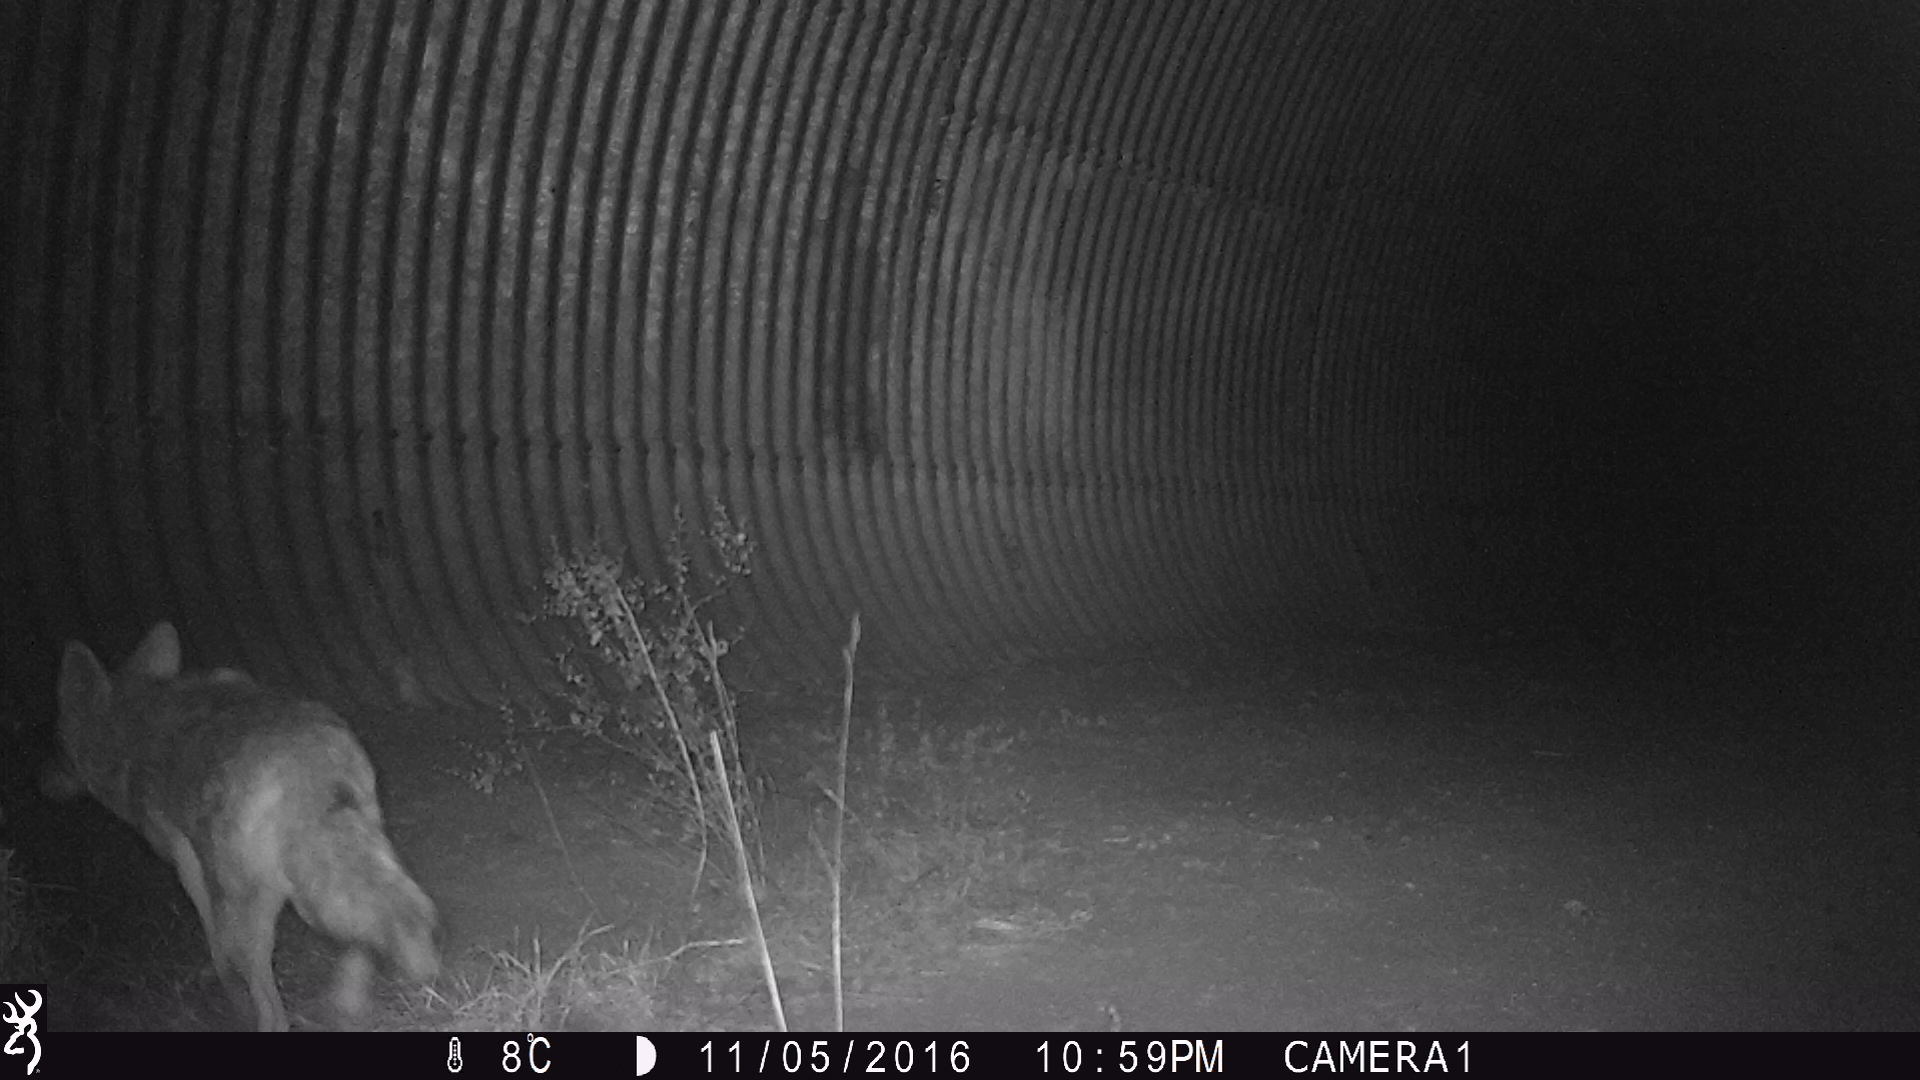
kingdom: Animalia
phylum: Chordata
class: Mammalia
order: Carnivora
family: Canidae
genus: Canis
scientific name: Canis latrans
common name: Coyote
